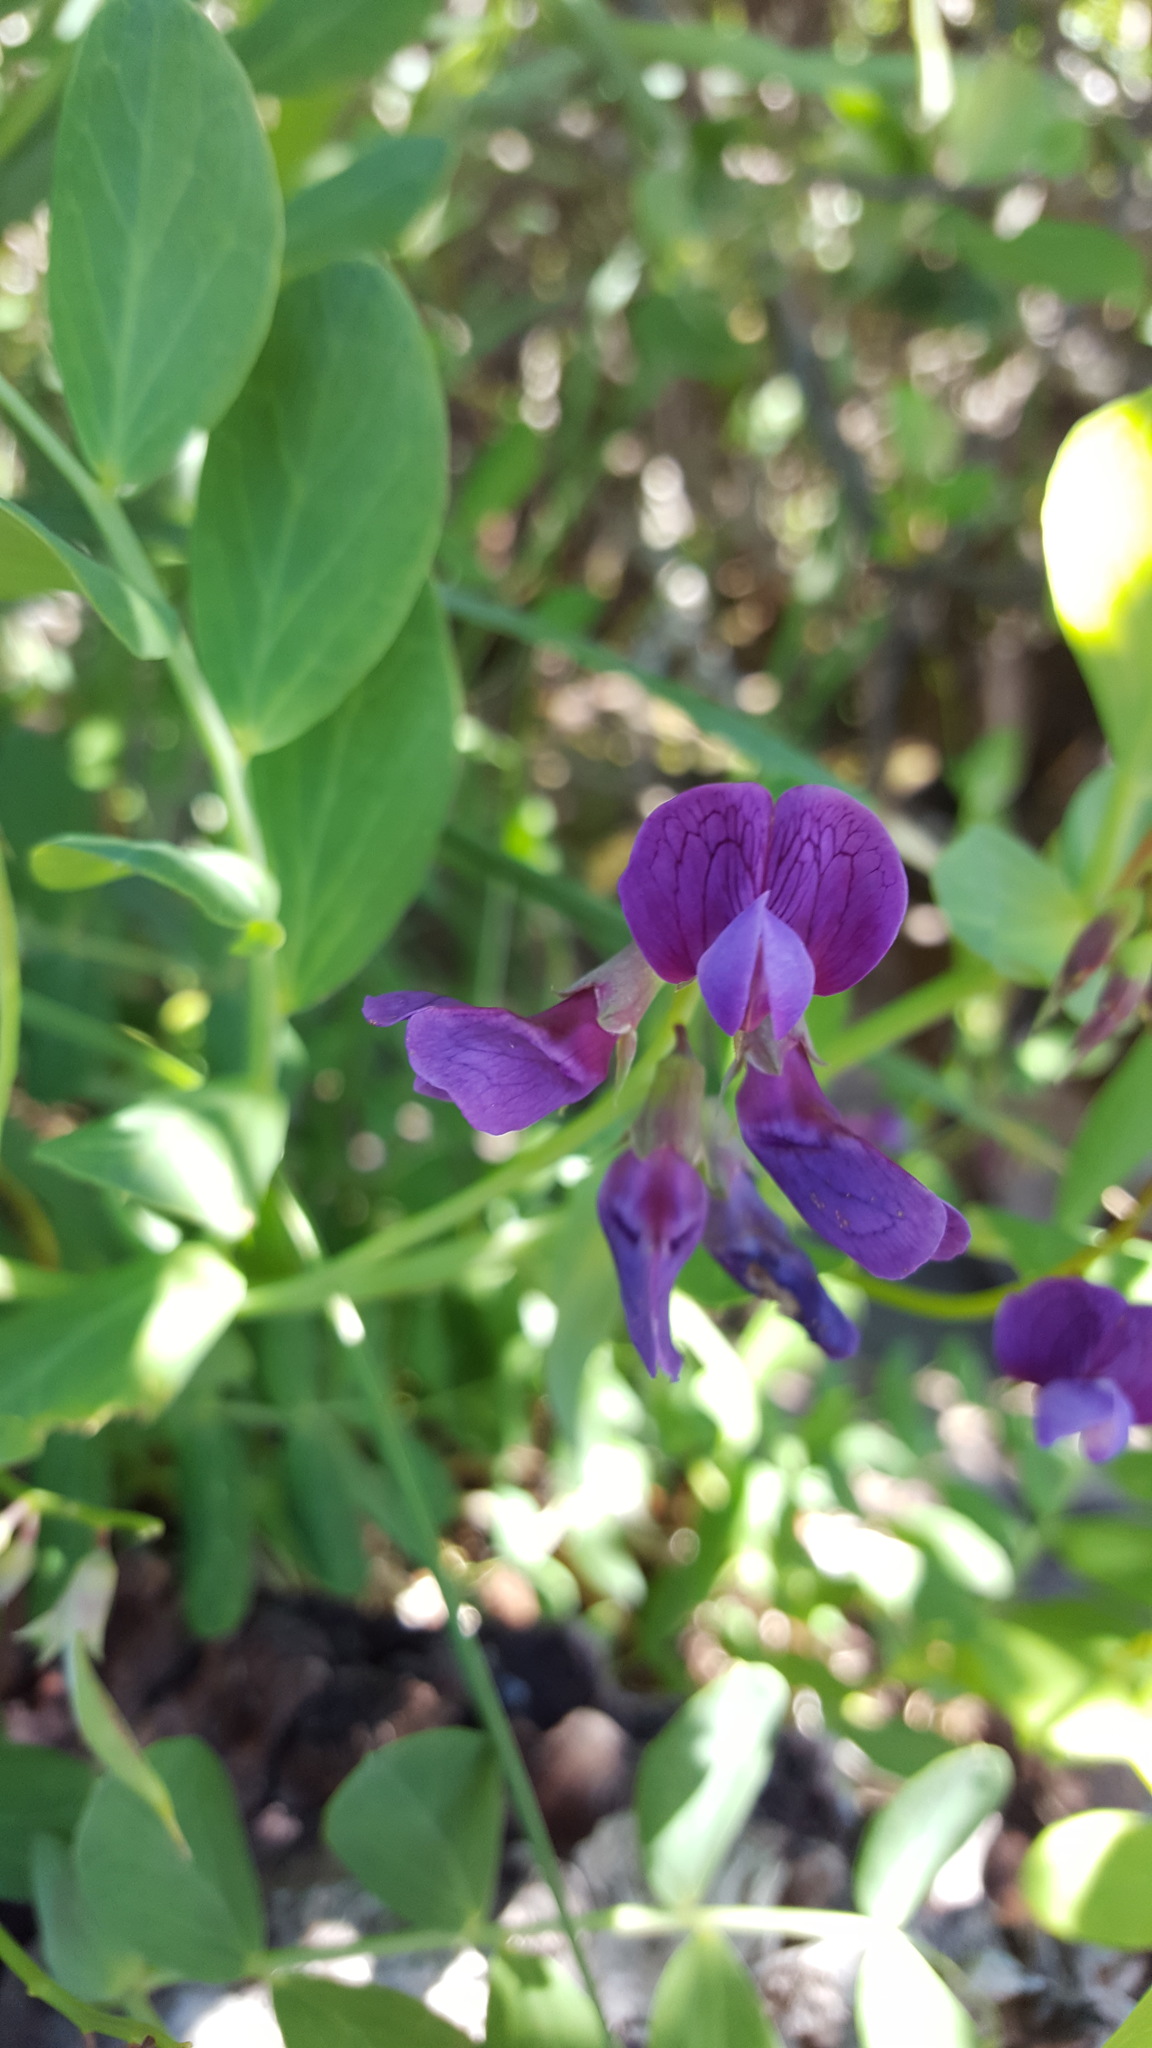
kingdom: Plantae
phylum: Tracheophyta
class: Magnoliopsida
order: Fabales
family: Fabaceae
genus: Lathyrus
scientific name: Lathyrus japonicus
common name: Sea pea
